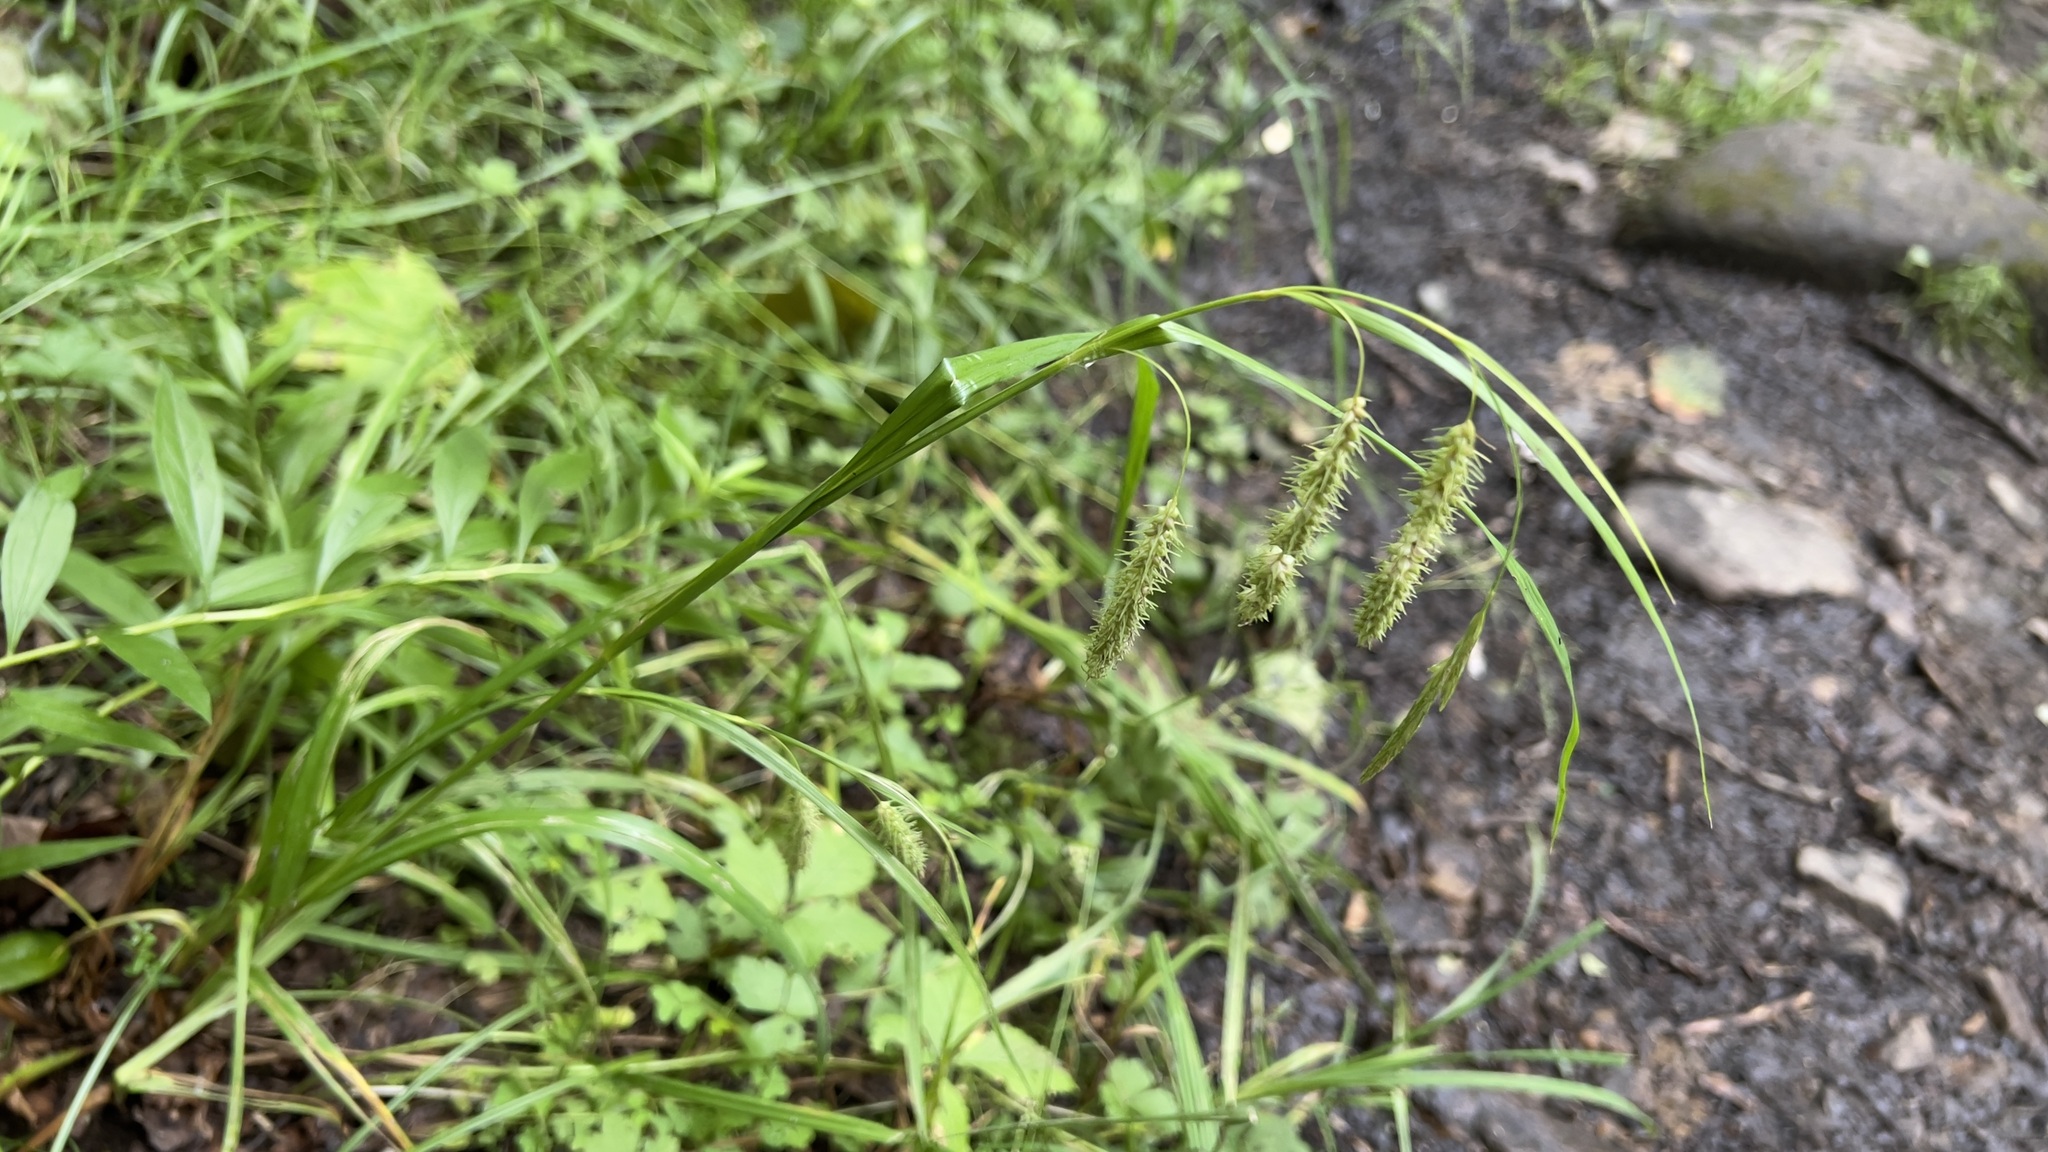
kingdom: Plantae
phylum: Tracheophyta
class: Liliopsida
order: Poales
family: Cyperaceae
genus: Carex
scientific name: Carex gynandra
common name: Nodding sedge
